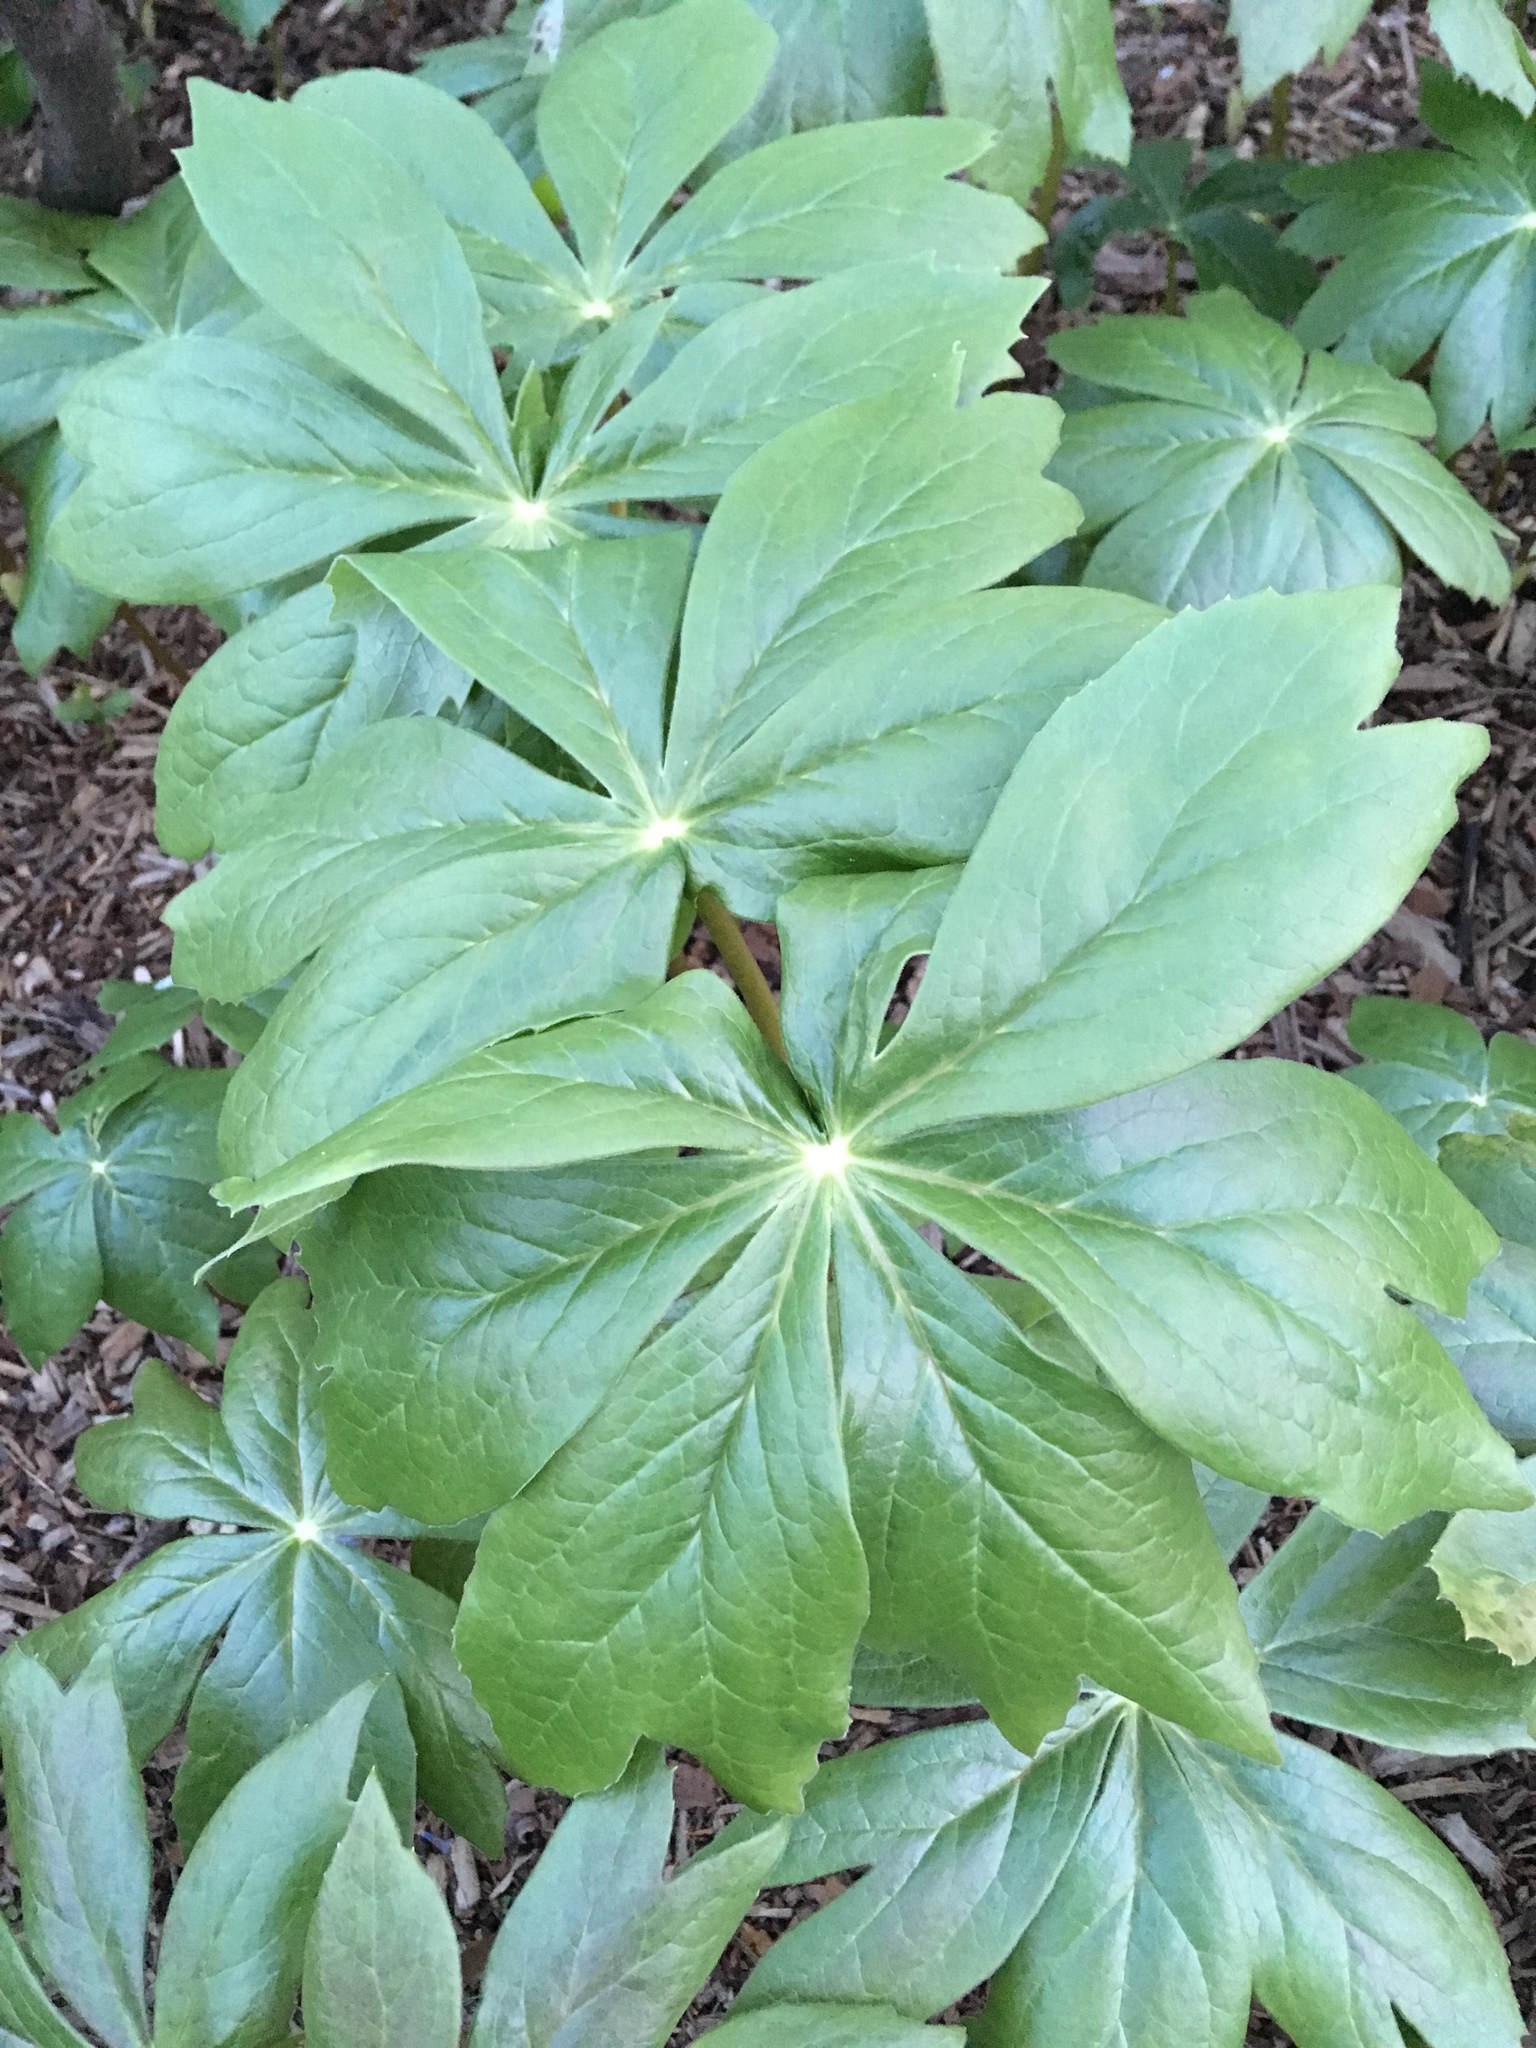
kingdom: Plantae
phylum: Tracheophyta
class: Magnoliopsida
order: Ranunculales
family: Berberidaceae
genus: Podophyllum
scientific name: Podophyllum peltatum
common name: Wild mandrake
